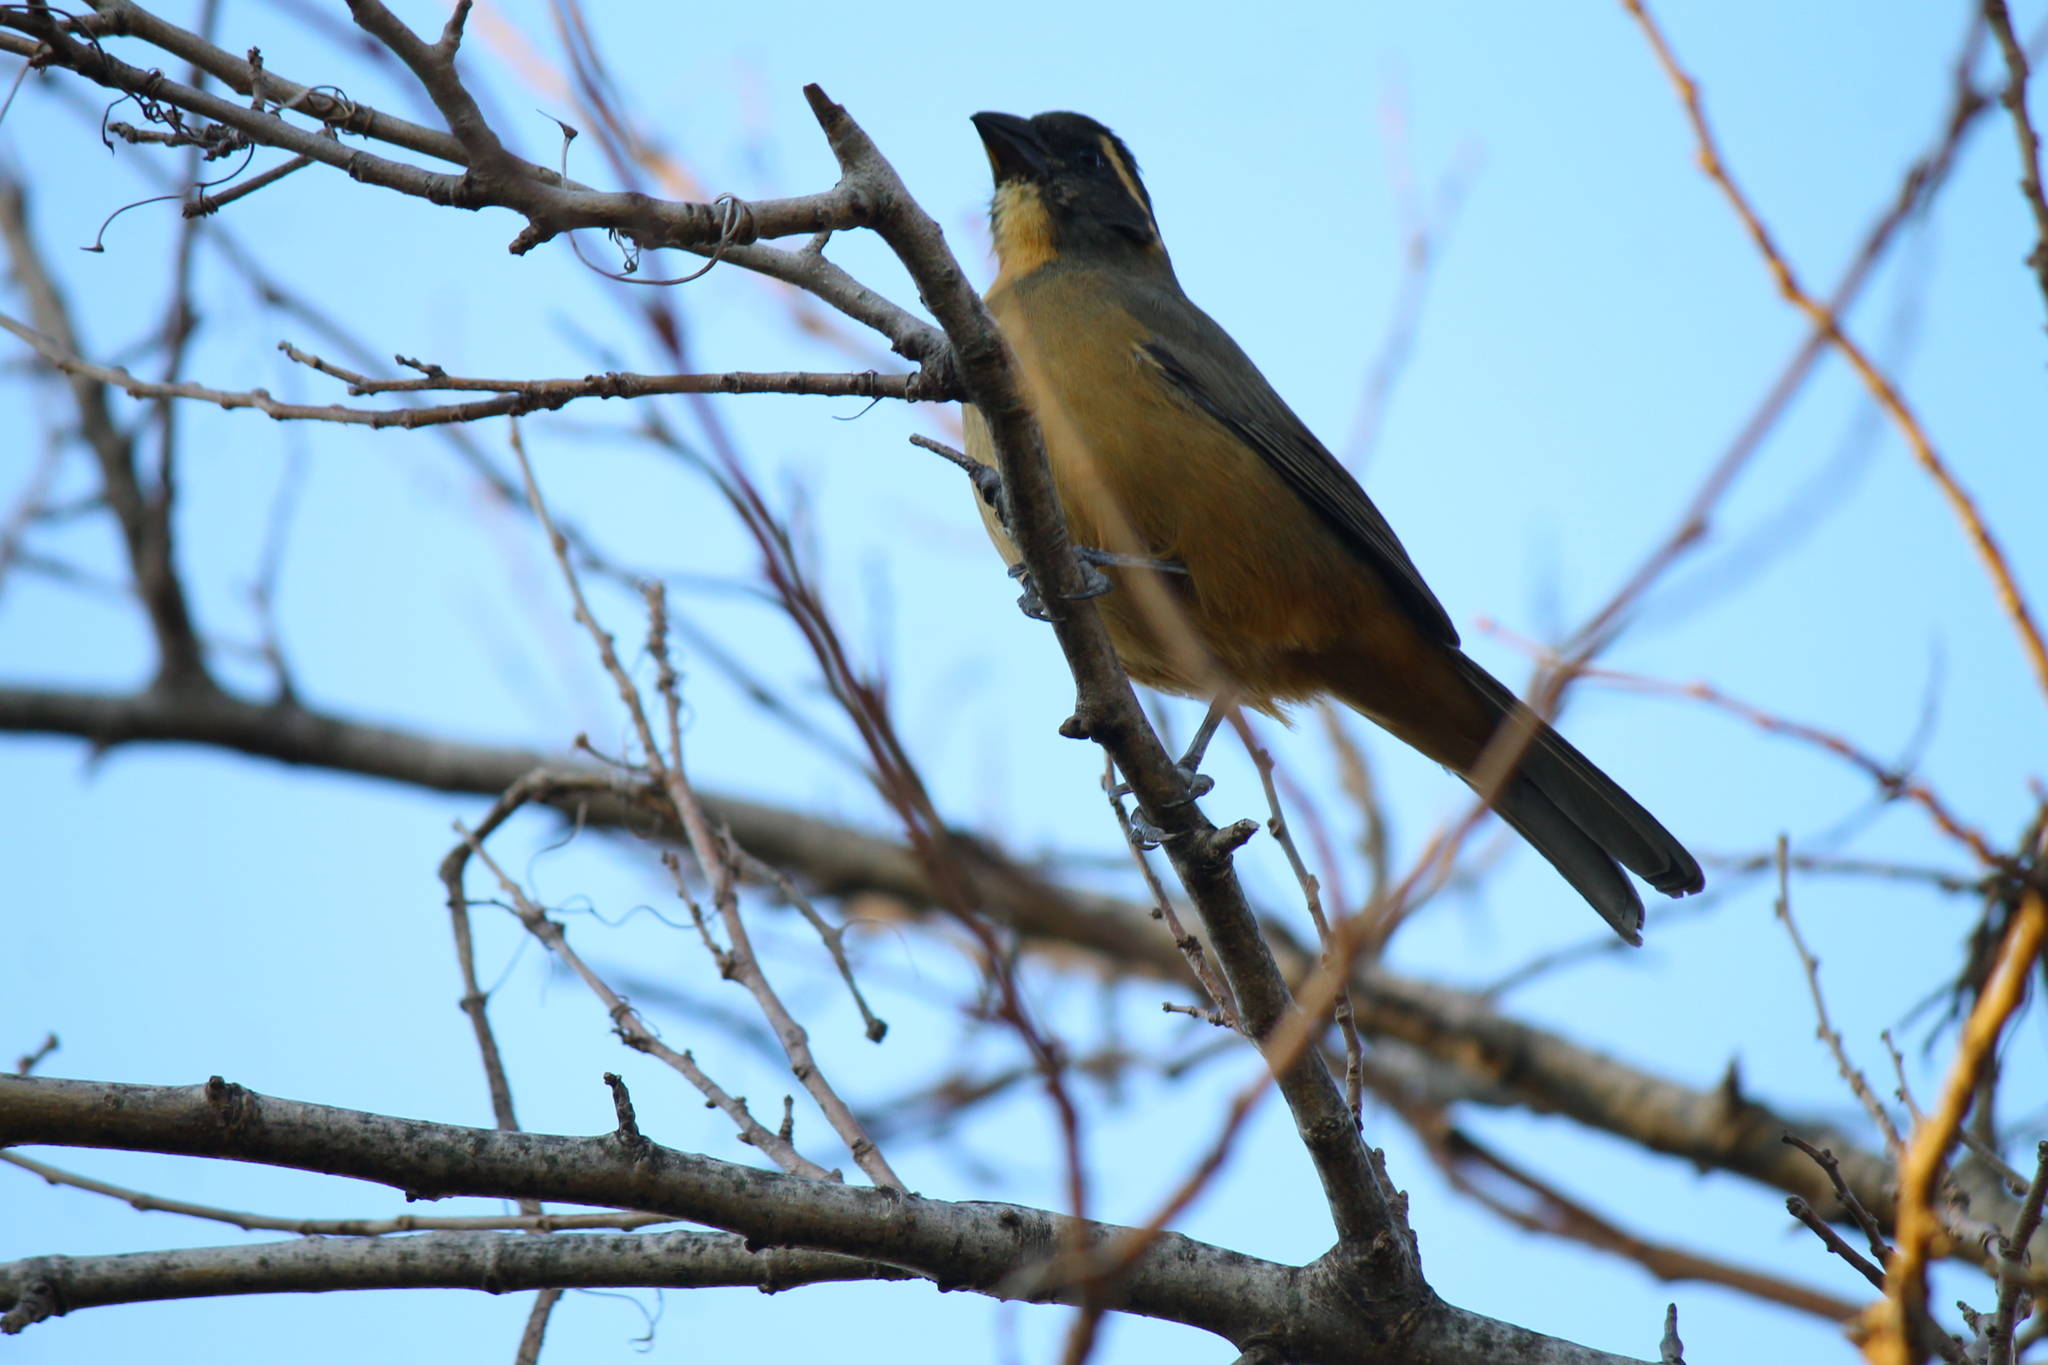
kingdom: Animalia
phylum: Chordata
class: Aves
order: Passeriformes
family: Thraupidae
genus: Saltator
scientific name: Saltator aurantiirostris
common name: Golden-billed saltator
